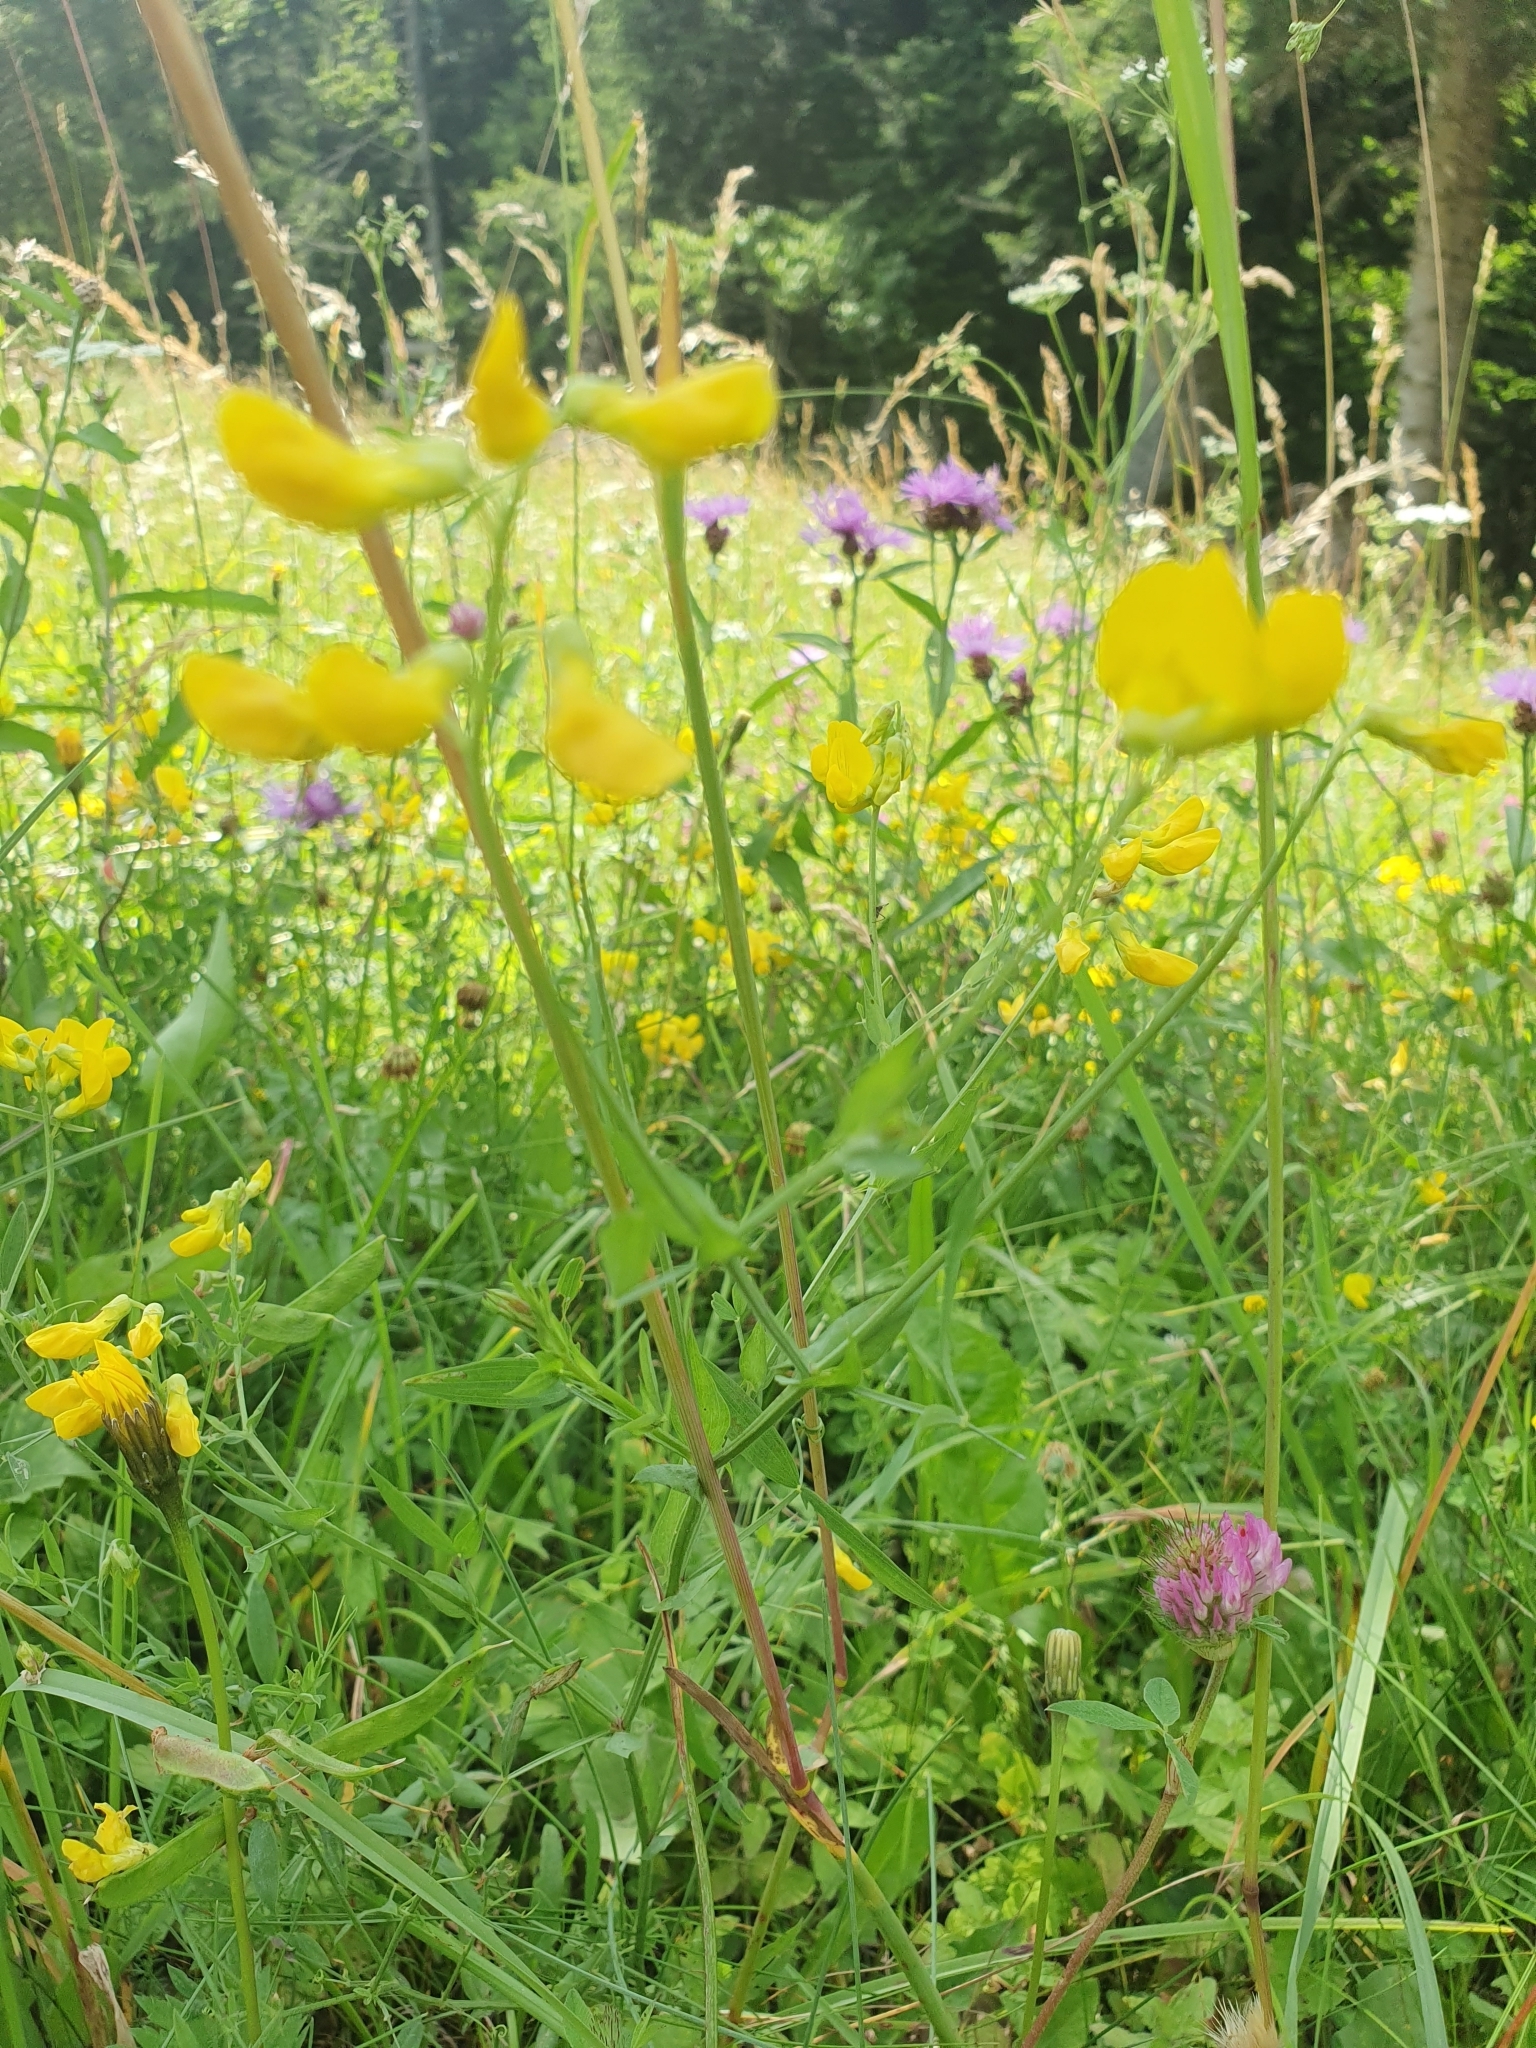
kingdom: Plantae
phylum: Tracheophyta
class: Magnoliopsida
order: Fabales
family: Fabaceae
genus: Lathyrus
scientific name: Lathyrus pratensis
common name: Meadow vetchling
